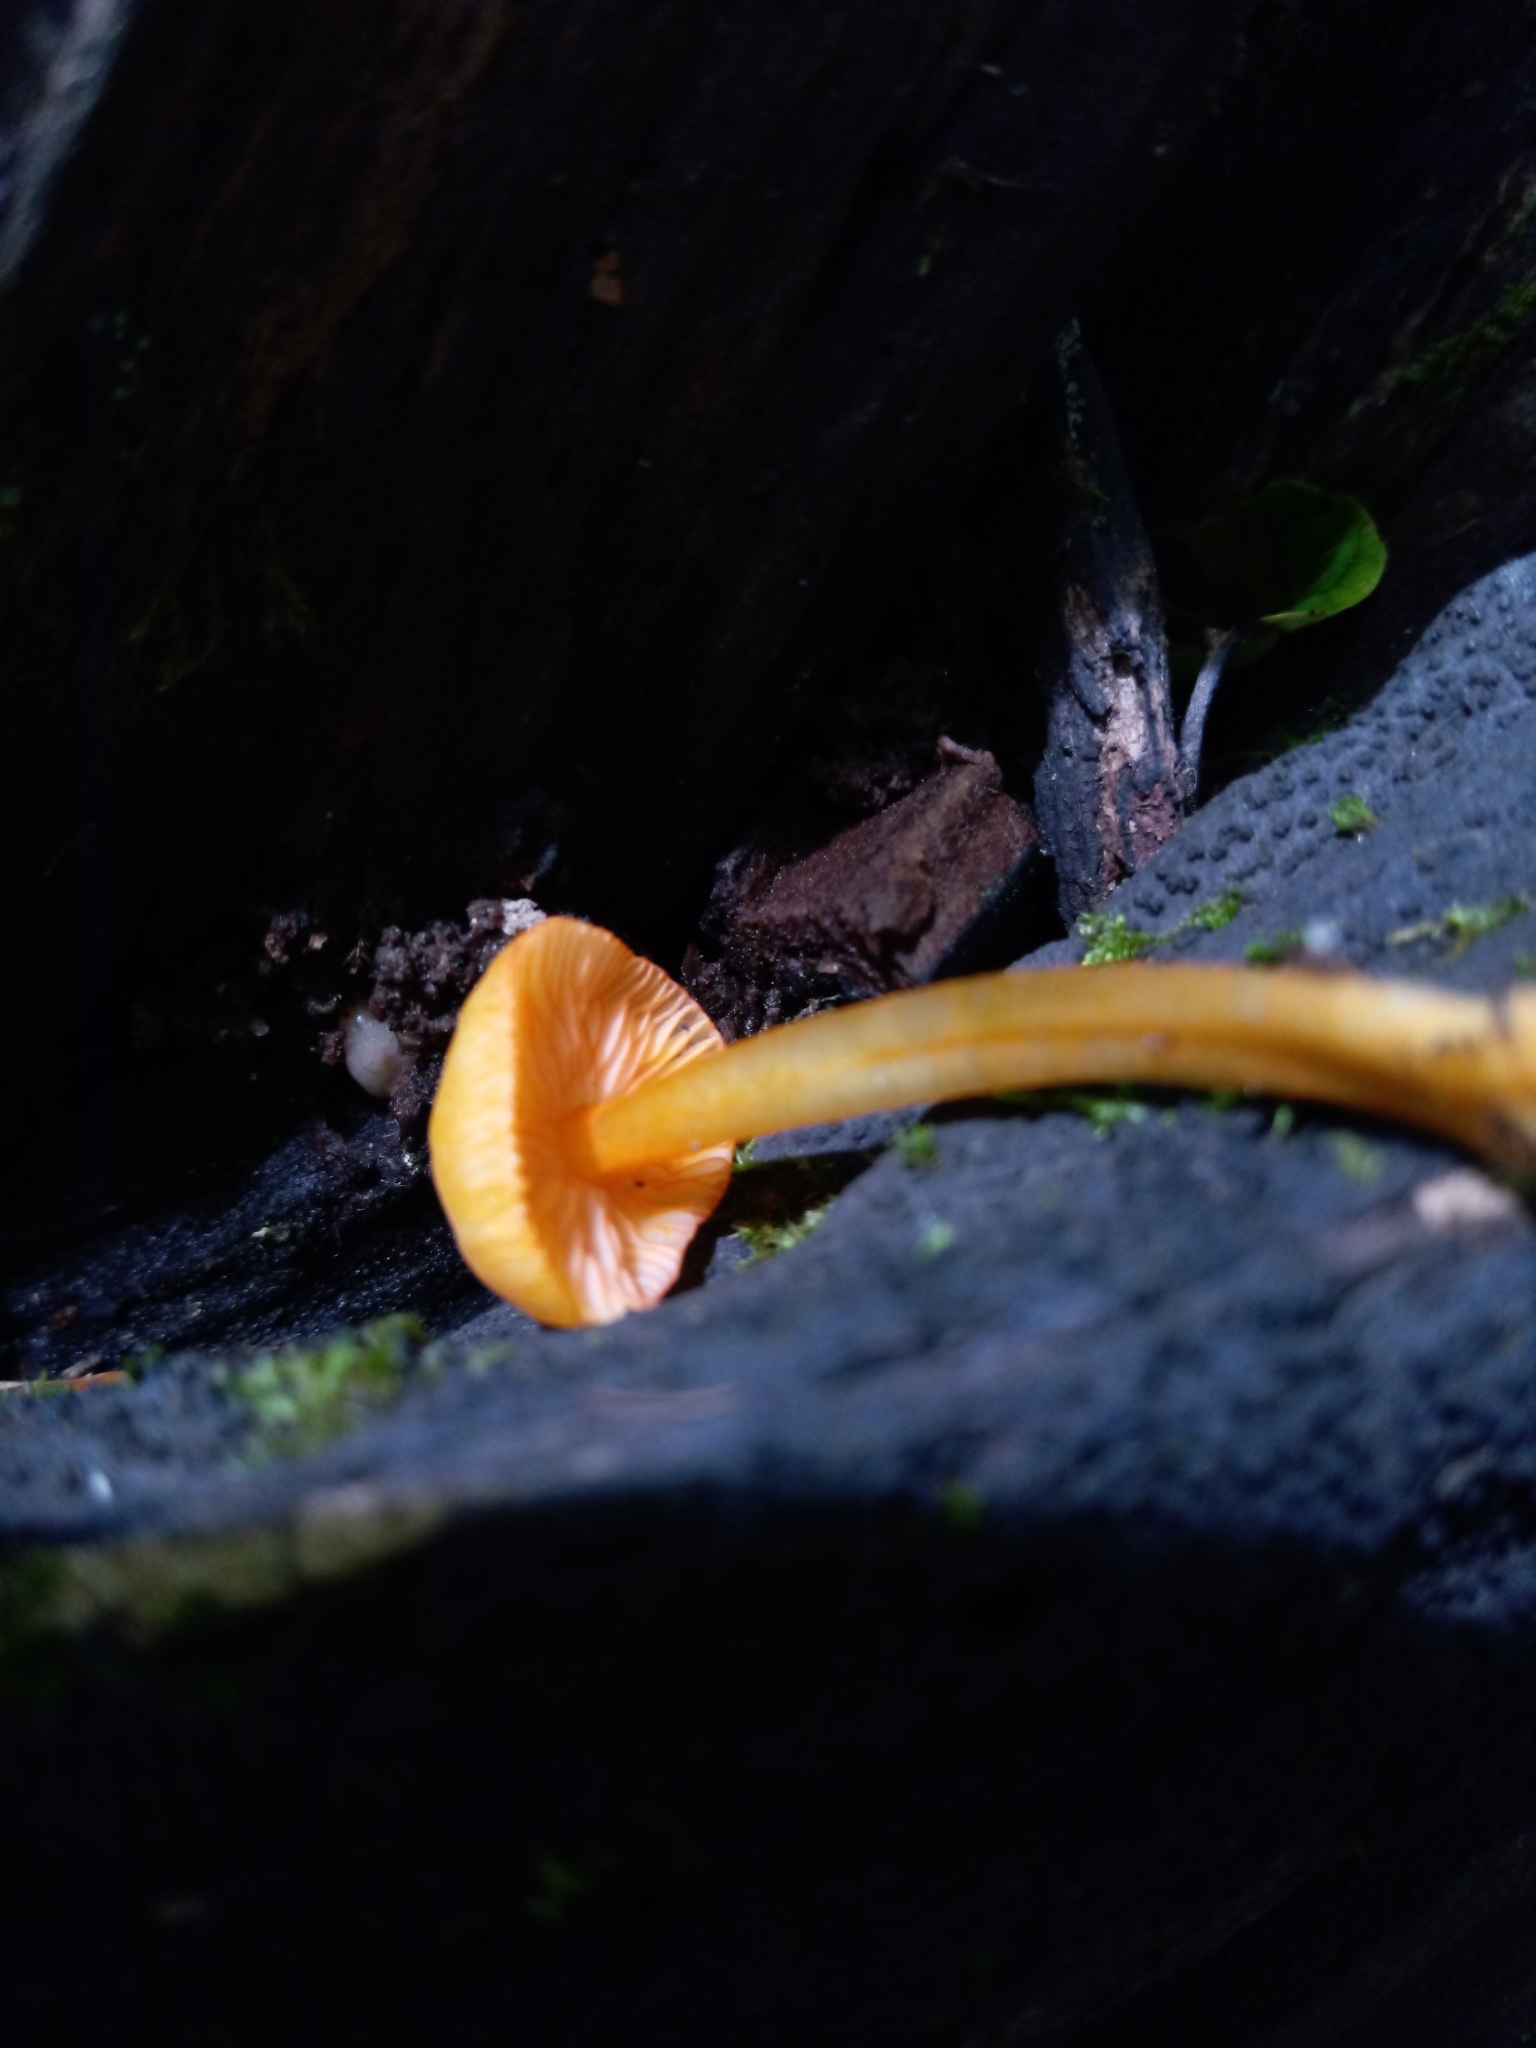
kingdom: Fungi
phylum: Basidiomycota
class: Agaricomycetes
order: Agaricales
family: Mycenaceae
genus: Mycena
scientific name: Mycena leaiana
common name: Orange mycena
